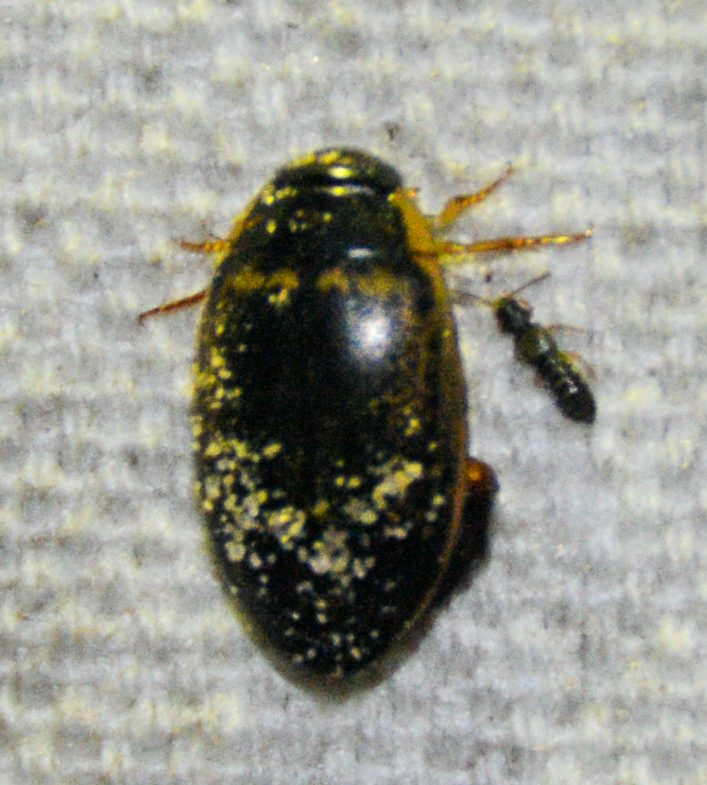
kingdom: Animalia
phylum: Arthropoda
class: Insecta
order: Coleoptera
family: Dytiscidae
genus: Thermonectus
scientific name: Thermonectus basillaris
